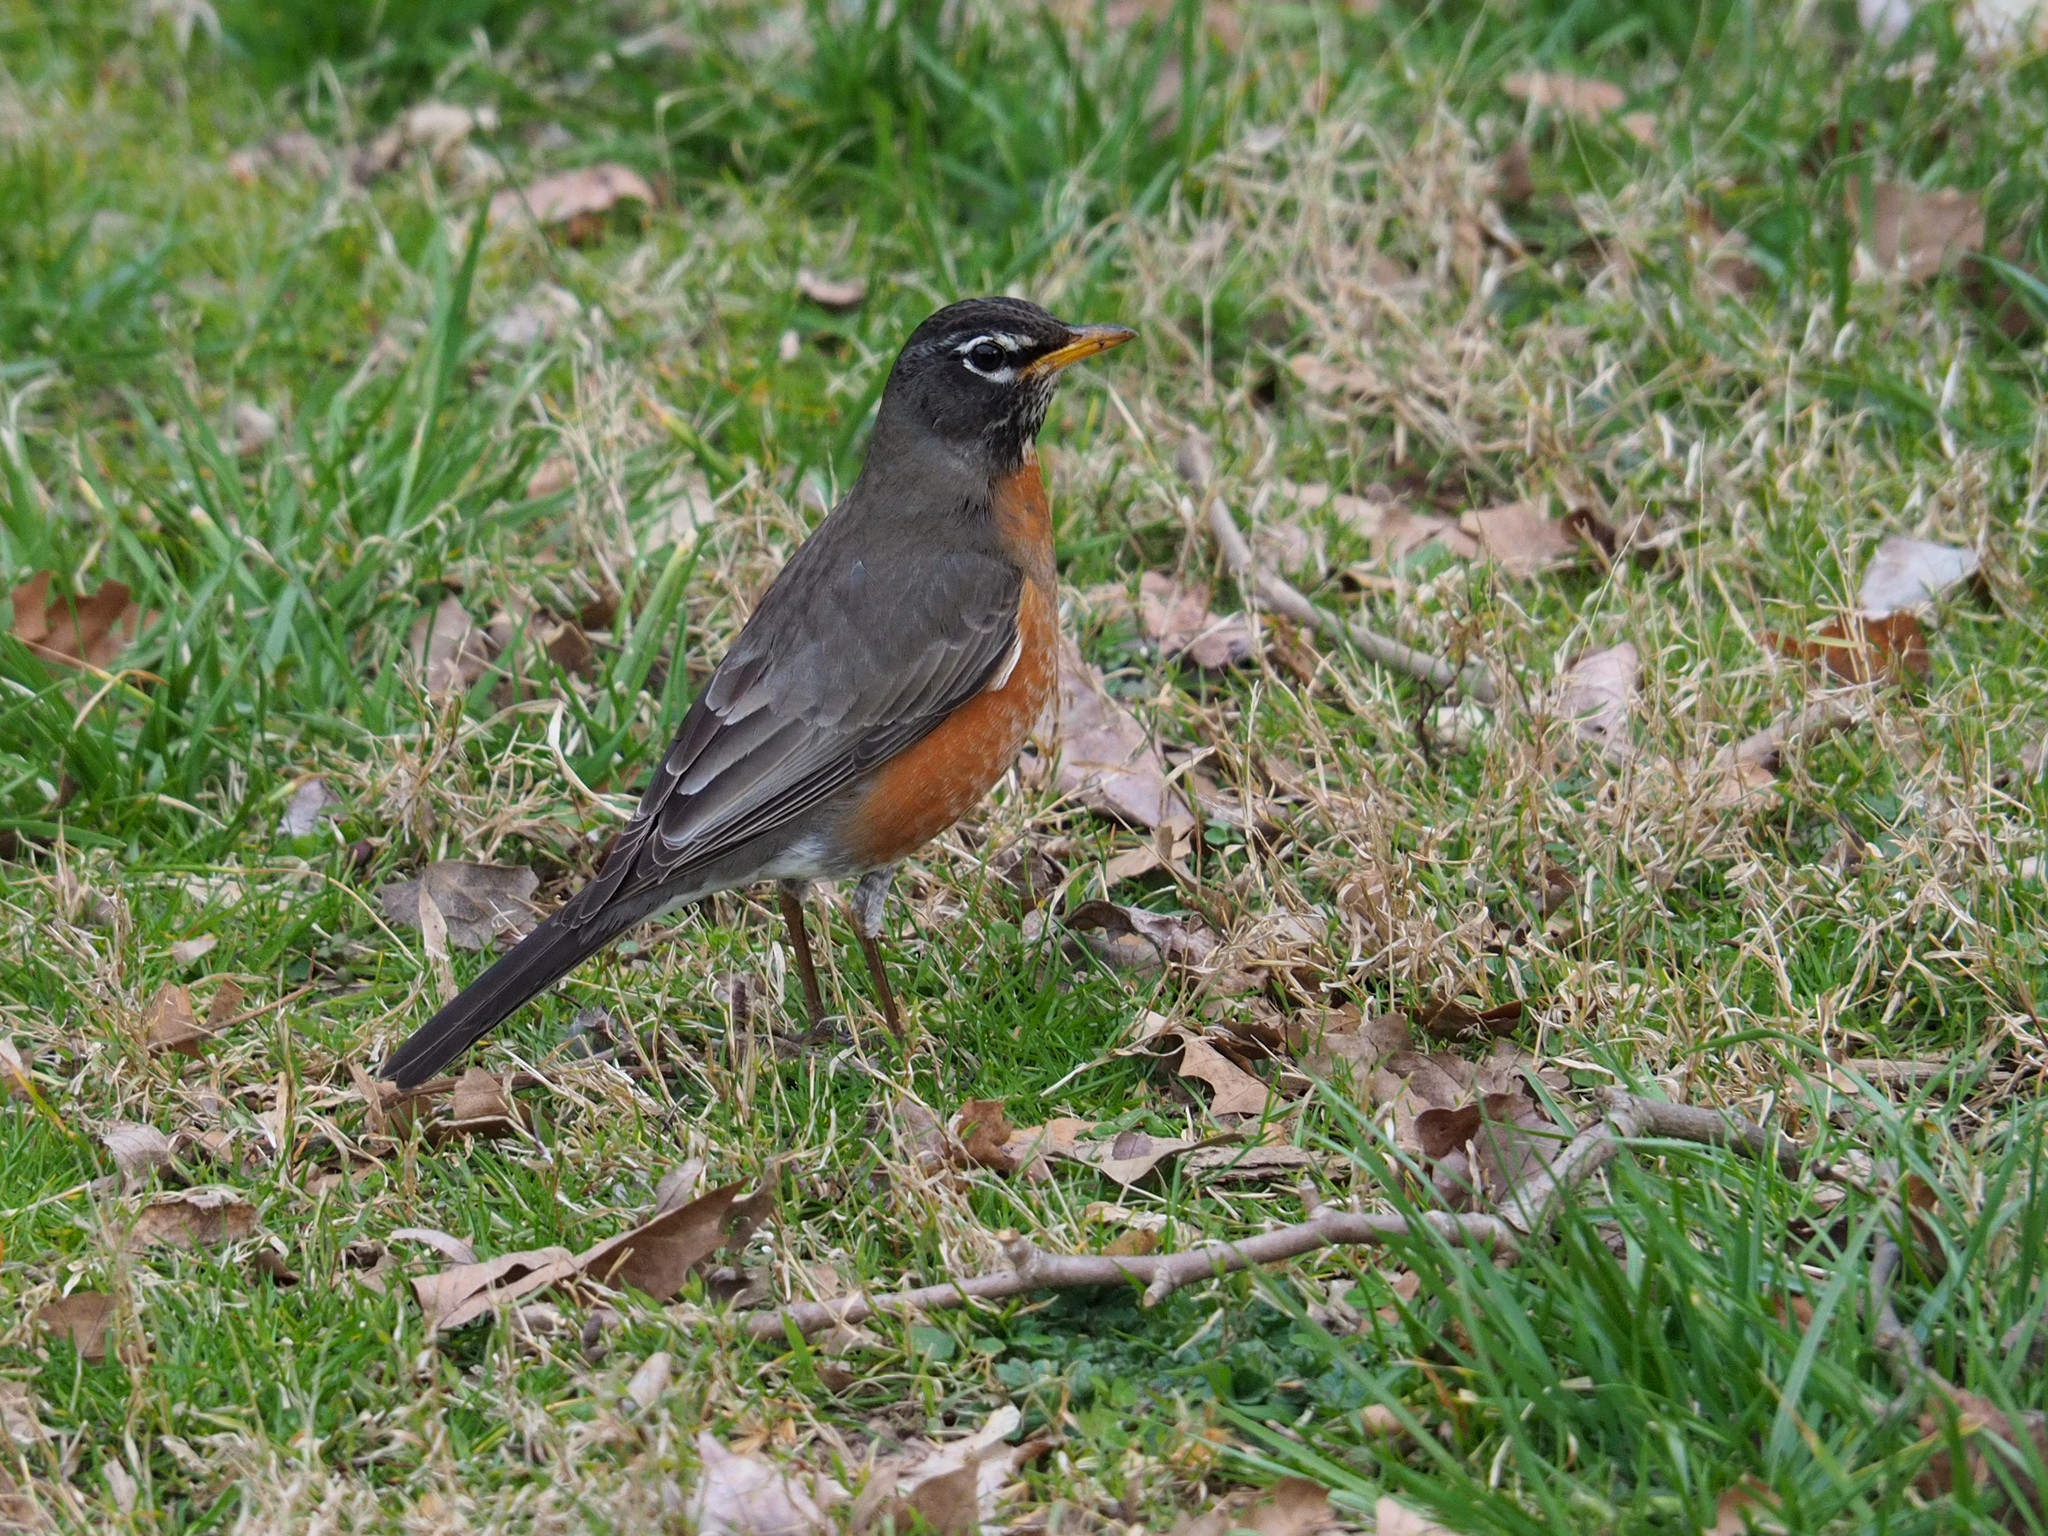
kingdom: Animalia
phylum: Chordata
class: Aves
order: Passeriformes
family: Turdidae
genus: Turdus
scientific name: Turdus migratorius
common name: American robin
